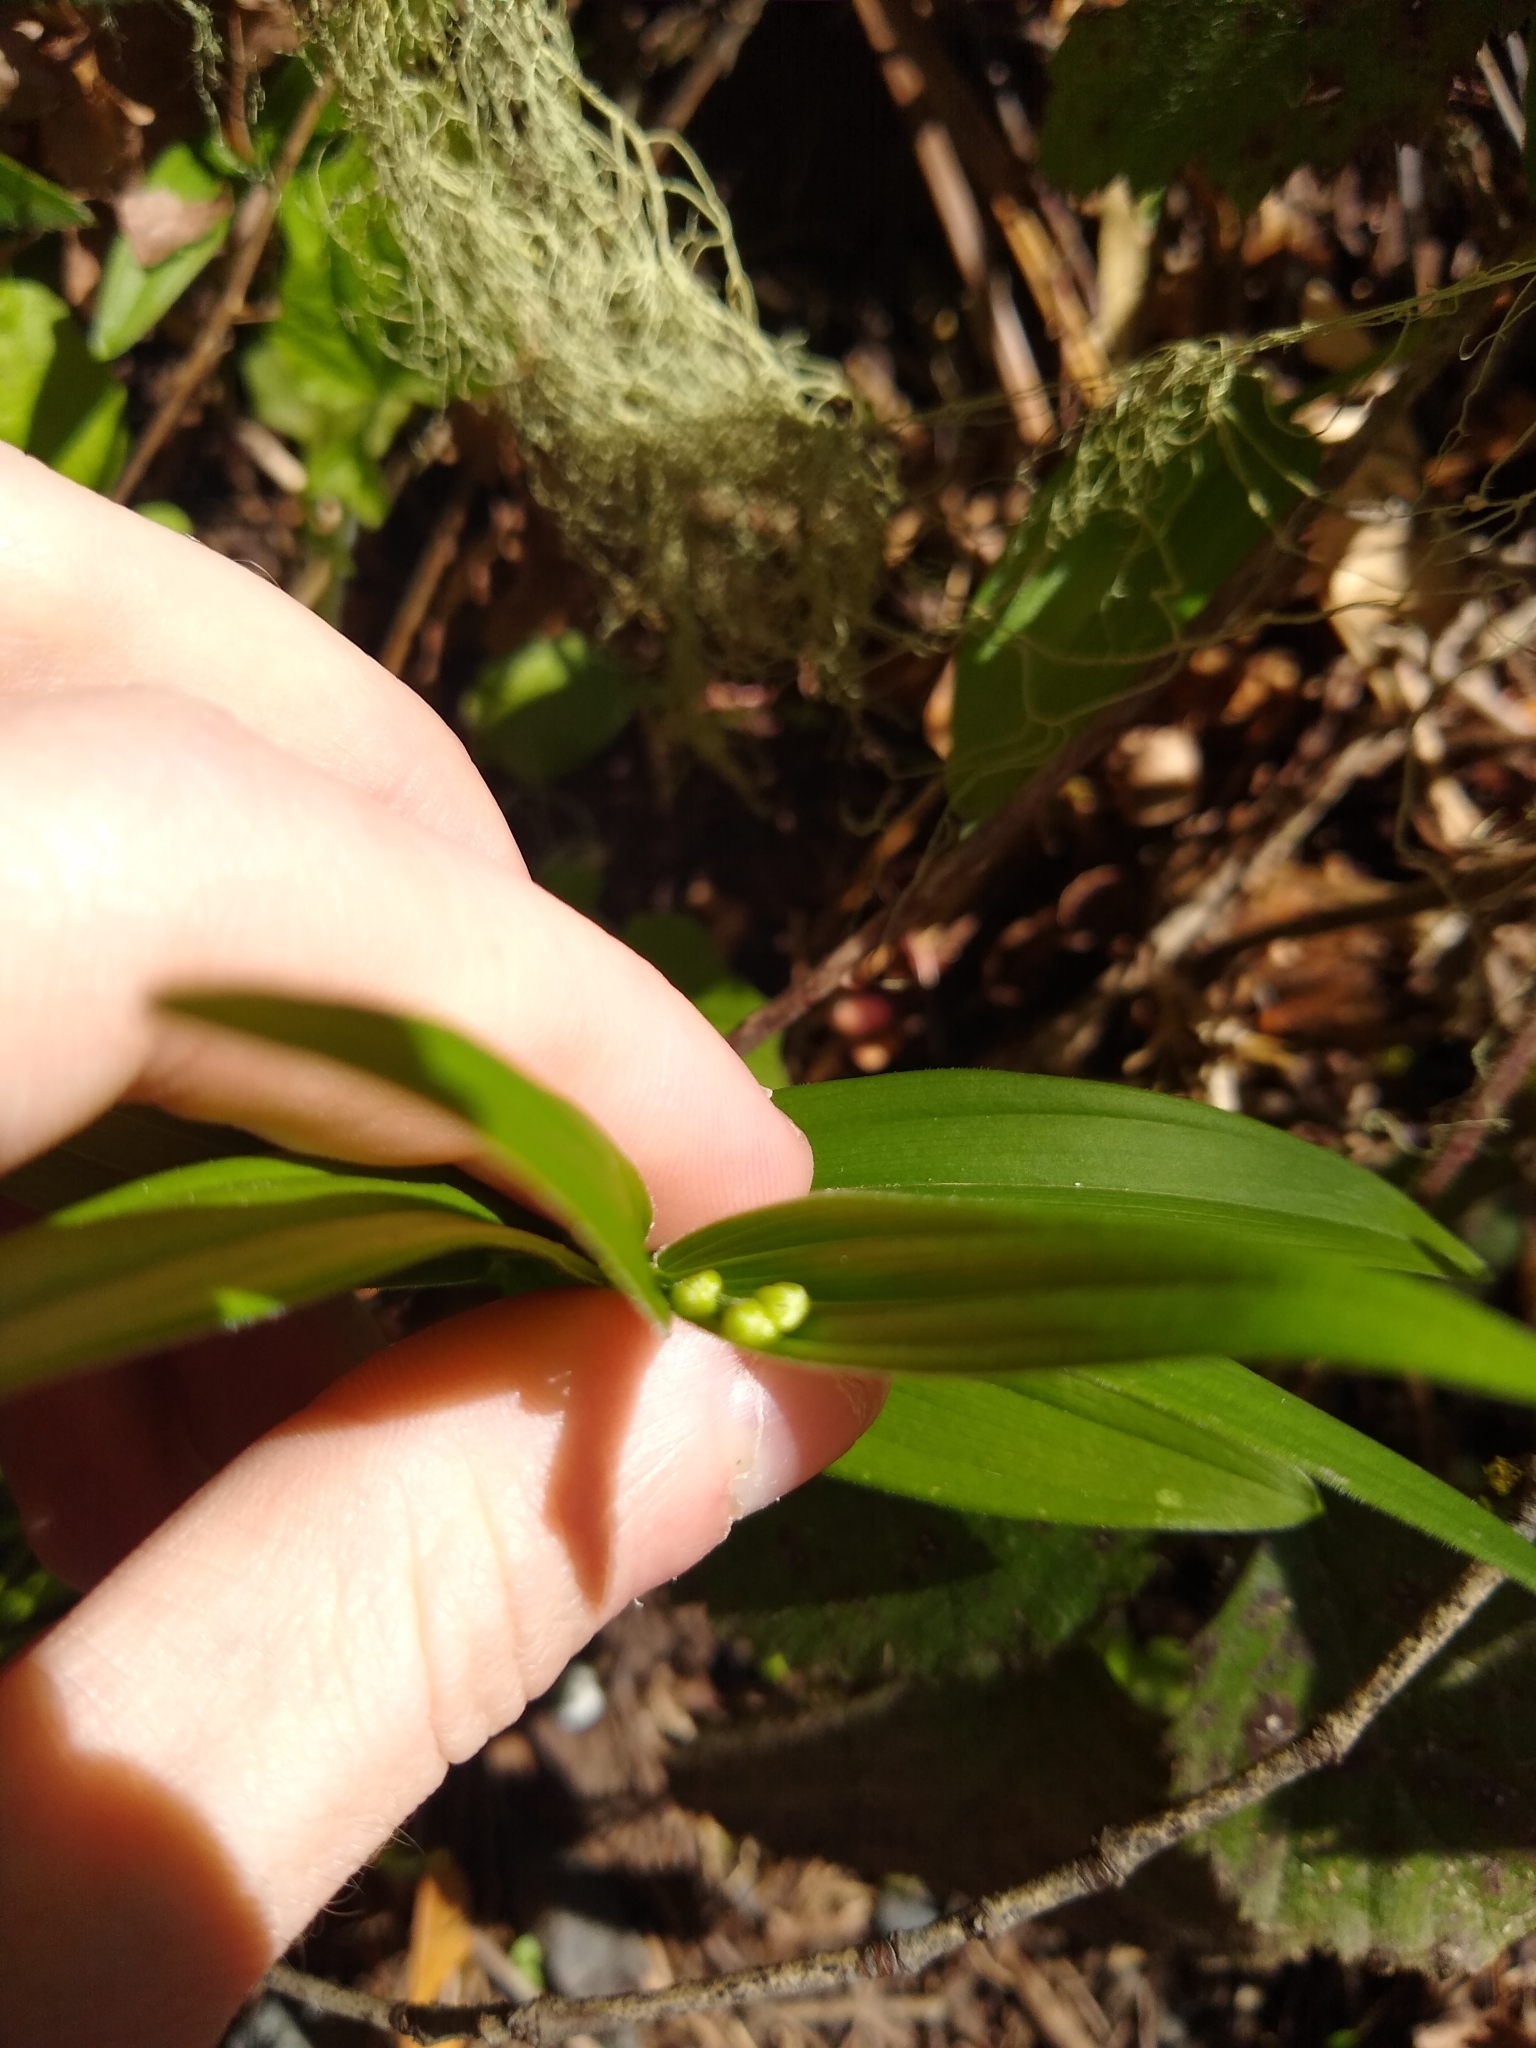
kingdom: Plantae
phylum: Tracheophyta
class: Liliopsida
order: Asparagales
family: Asparagaceae
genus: Maianthemum
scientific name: Maianthemum stellatum
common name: Little false solomon's seal
